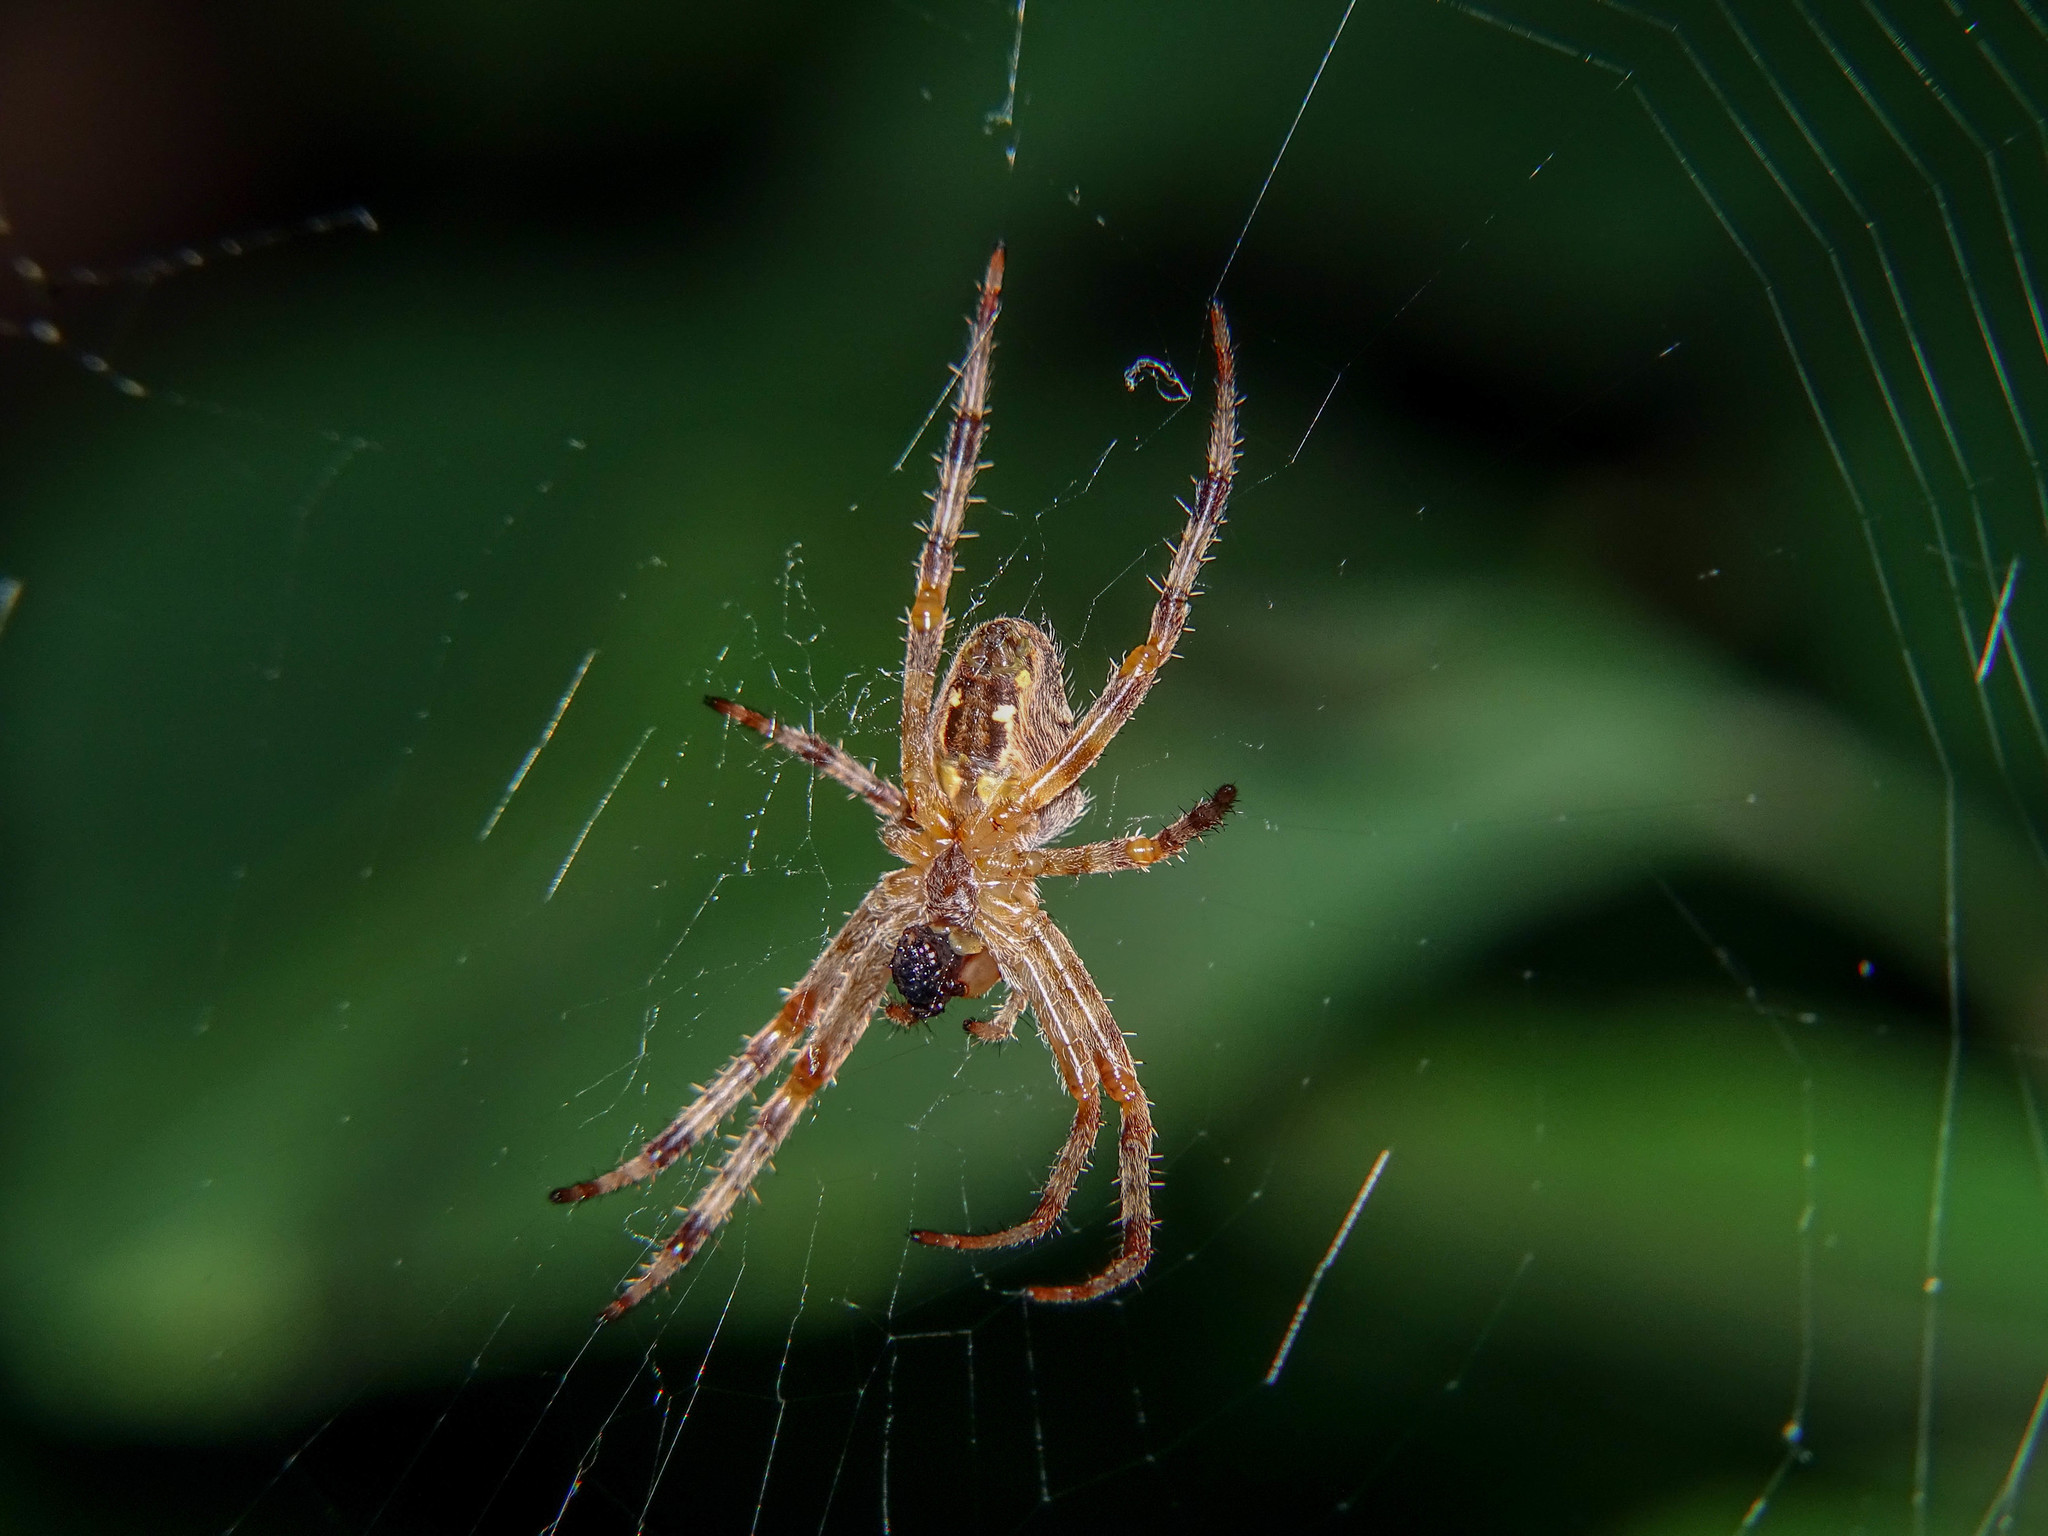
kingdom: Animalia
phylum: Arthropoda
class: Arachnida
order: Araneae
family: Araneidae
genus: Araneus
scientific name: Araneus diadematus
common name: Cross orbweaver
